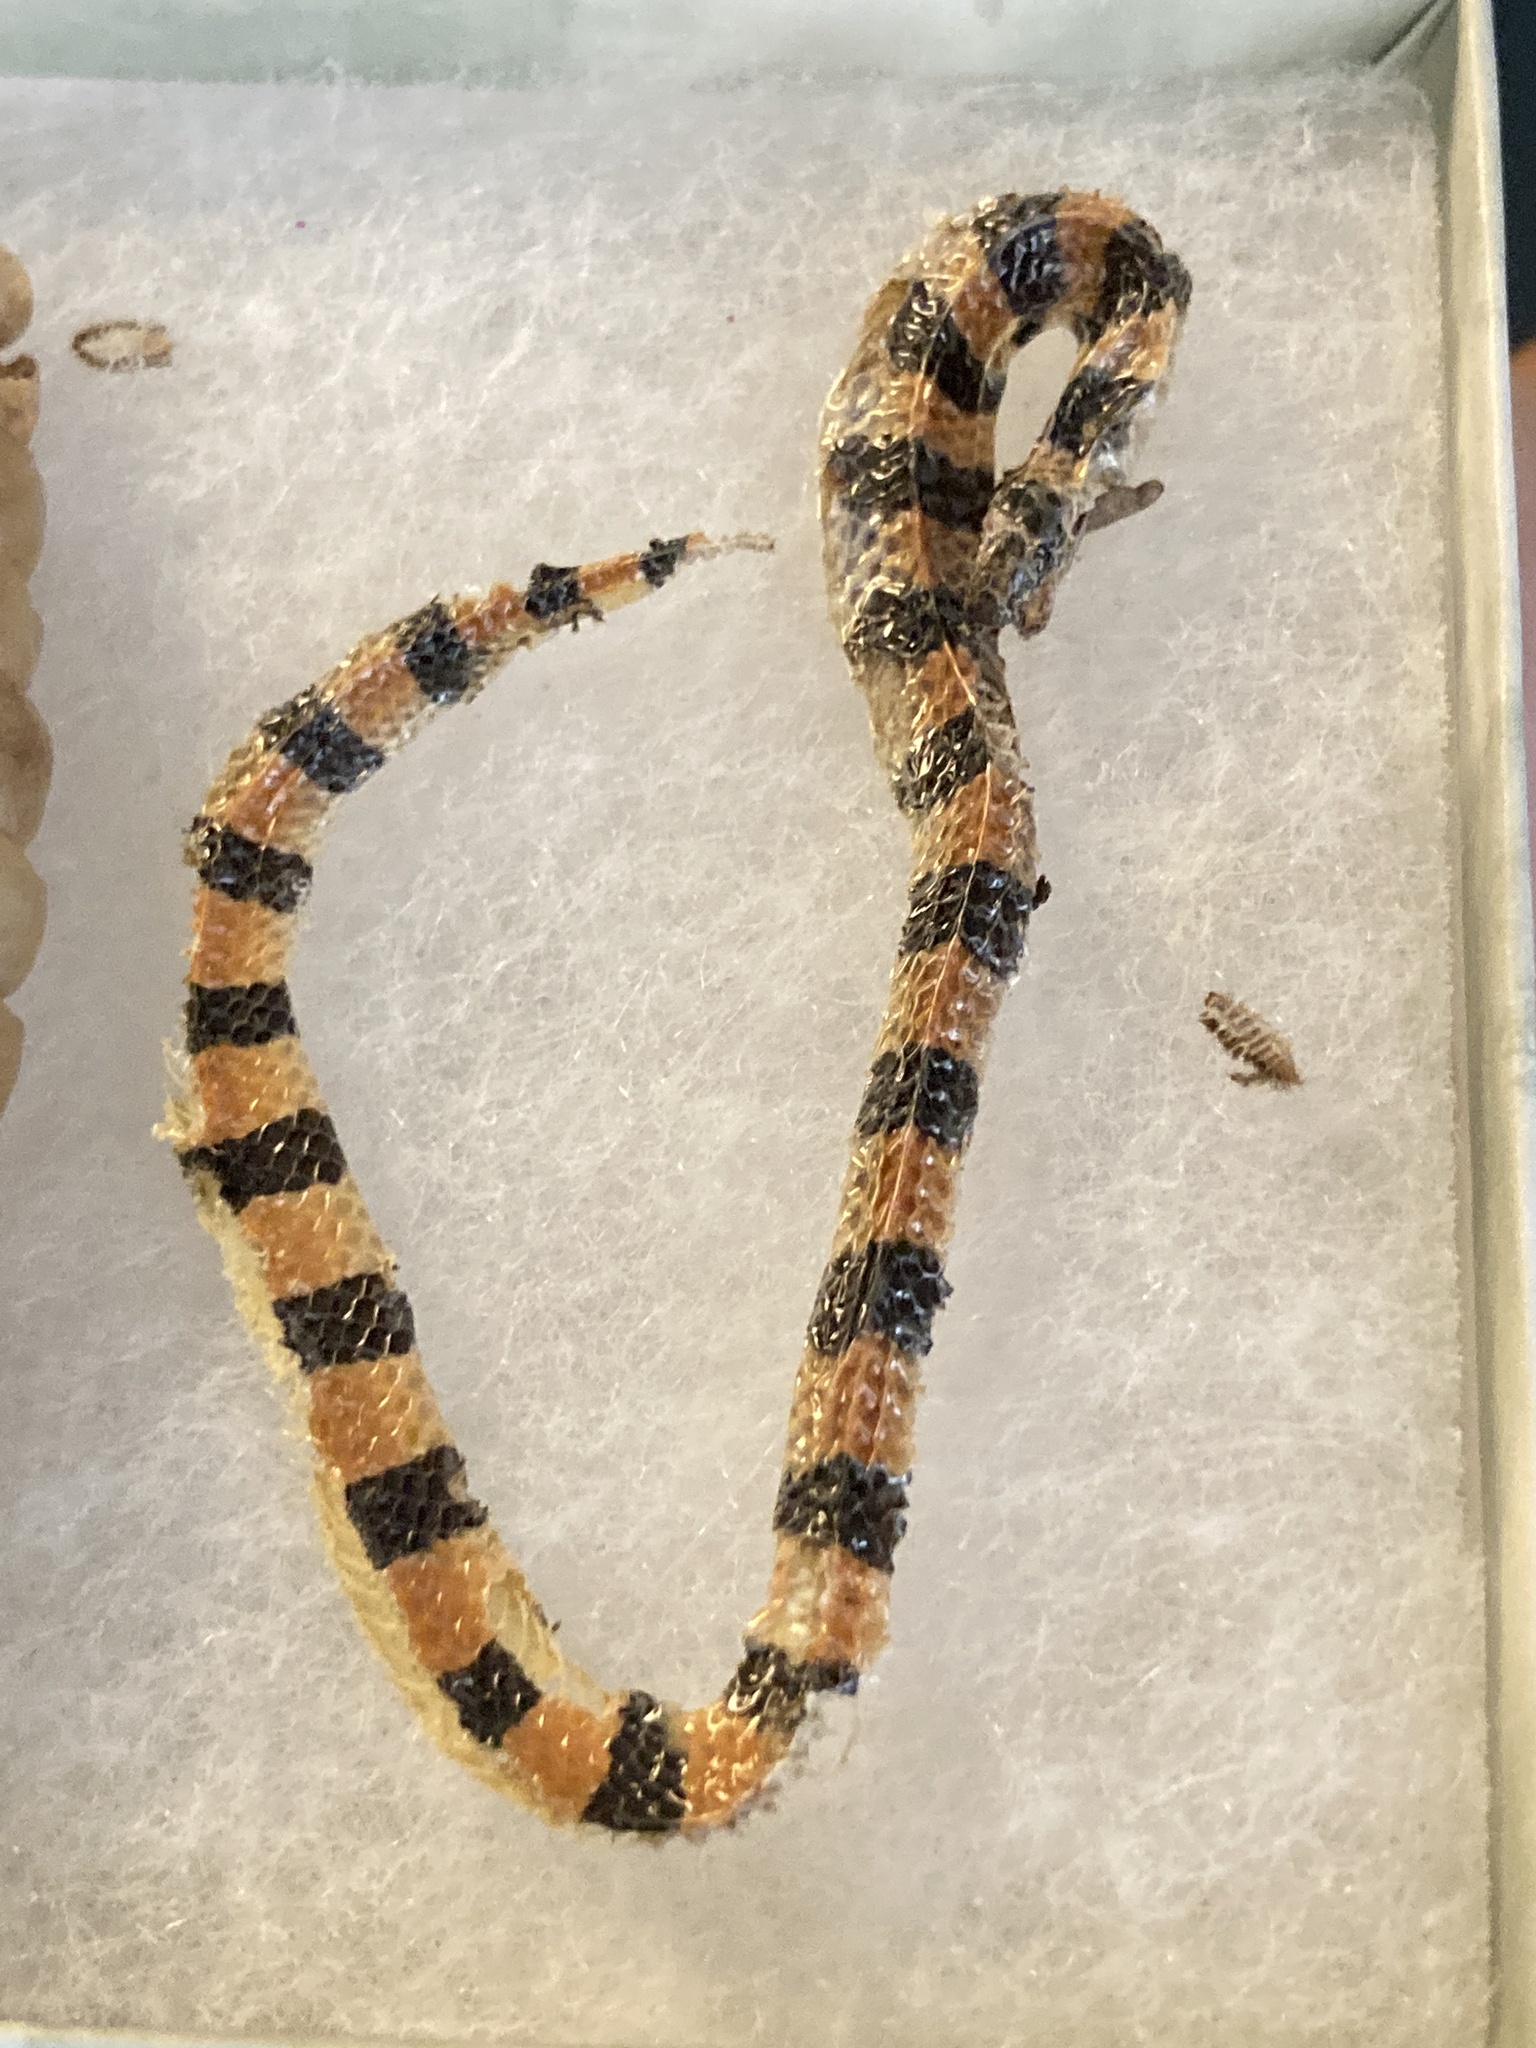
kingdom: Animalia
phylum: Chordata
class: Squamata
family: Colubridae
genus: Sonora
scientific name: Sonora cincta
